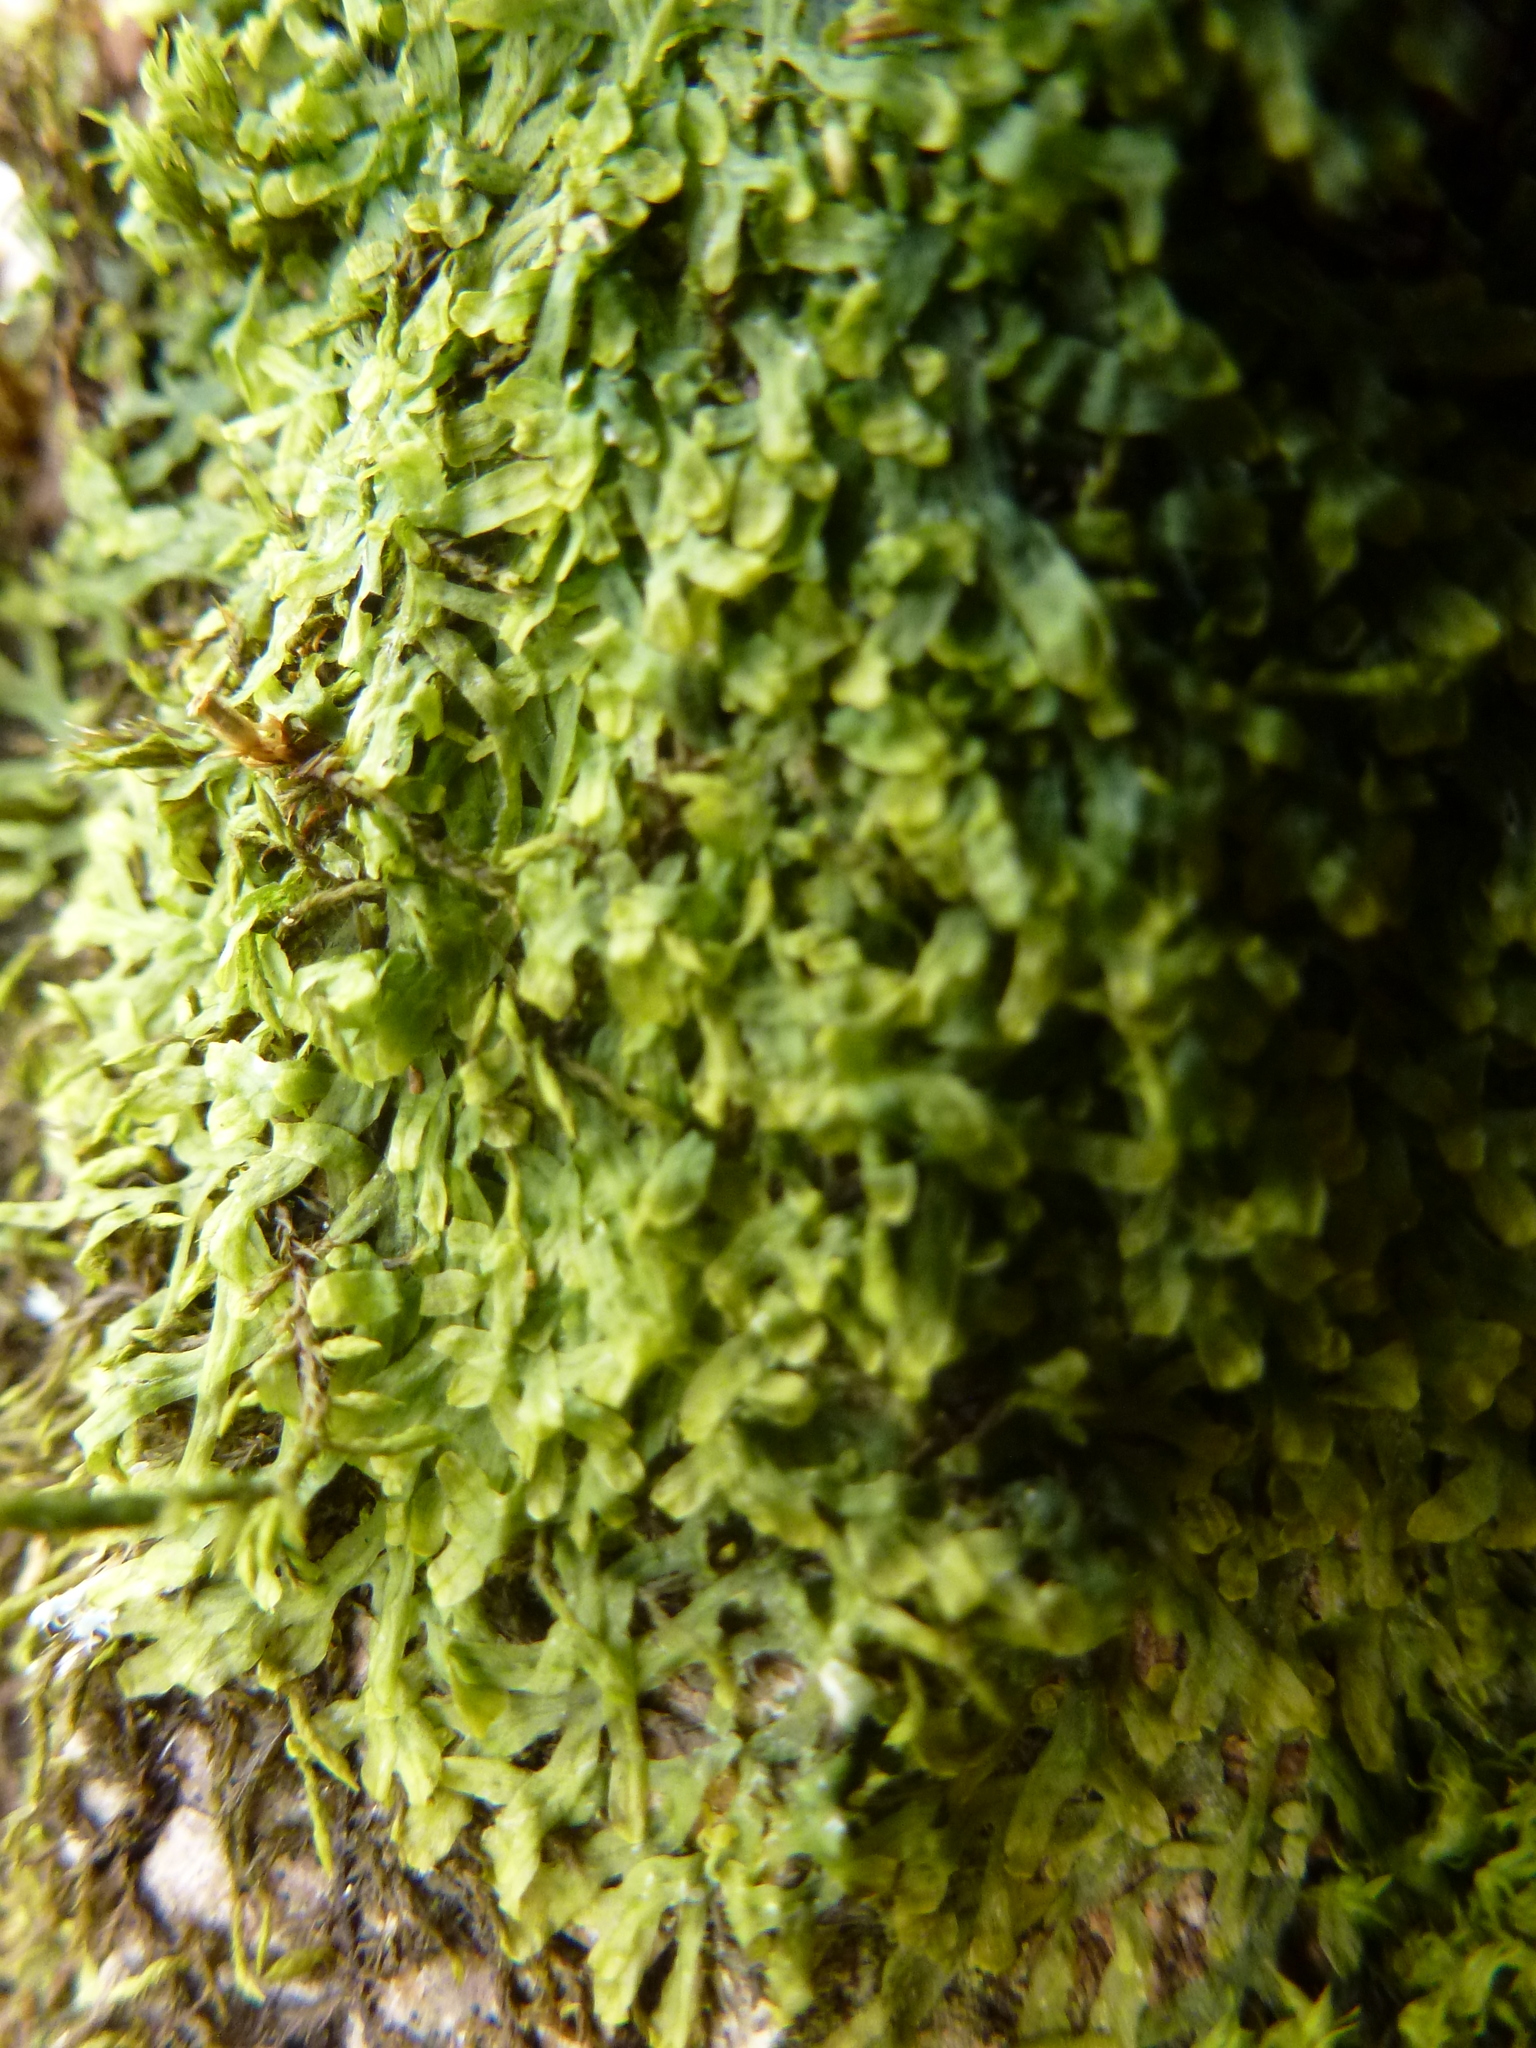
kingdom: Plantae
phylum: Marchantiophyta
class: Jungermanniopsida
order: Metzgeriales
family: Metzgeriaceae
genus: Metzgeria
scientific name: Metzgeria furcata
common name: Forked veilwort
